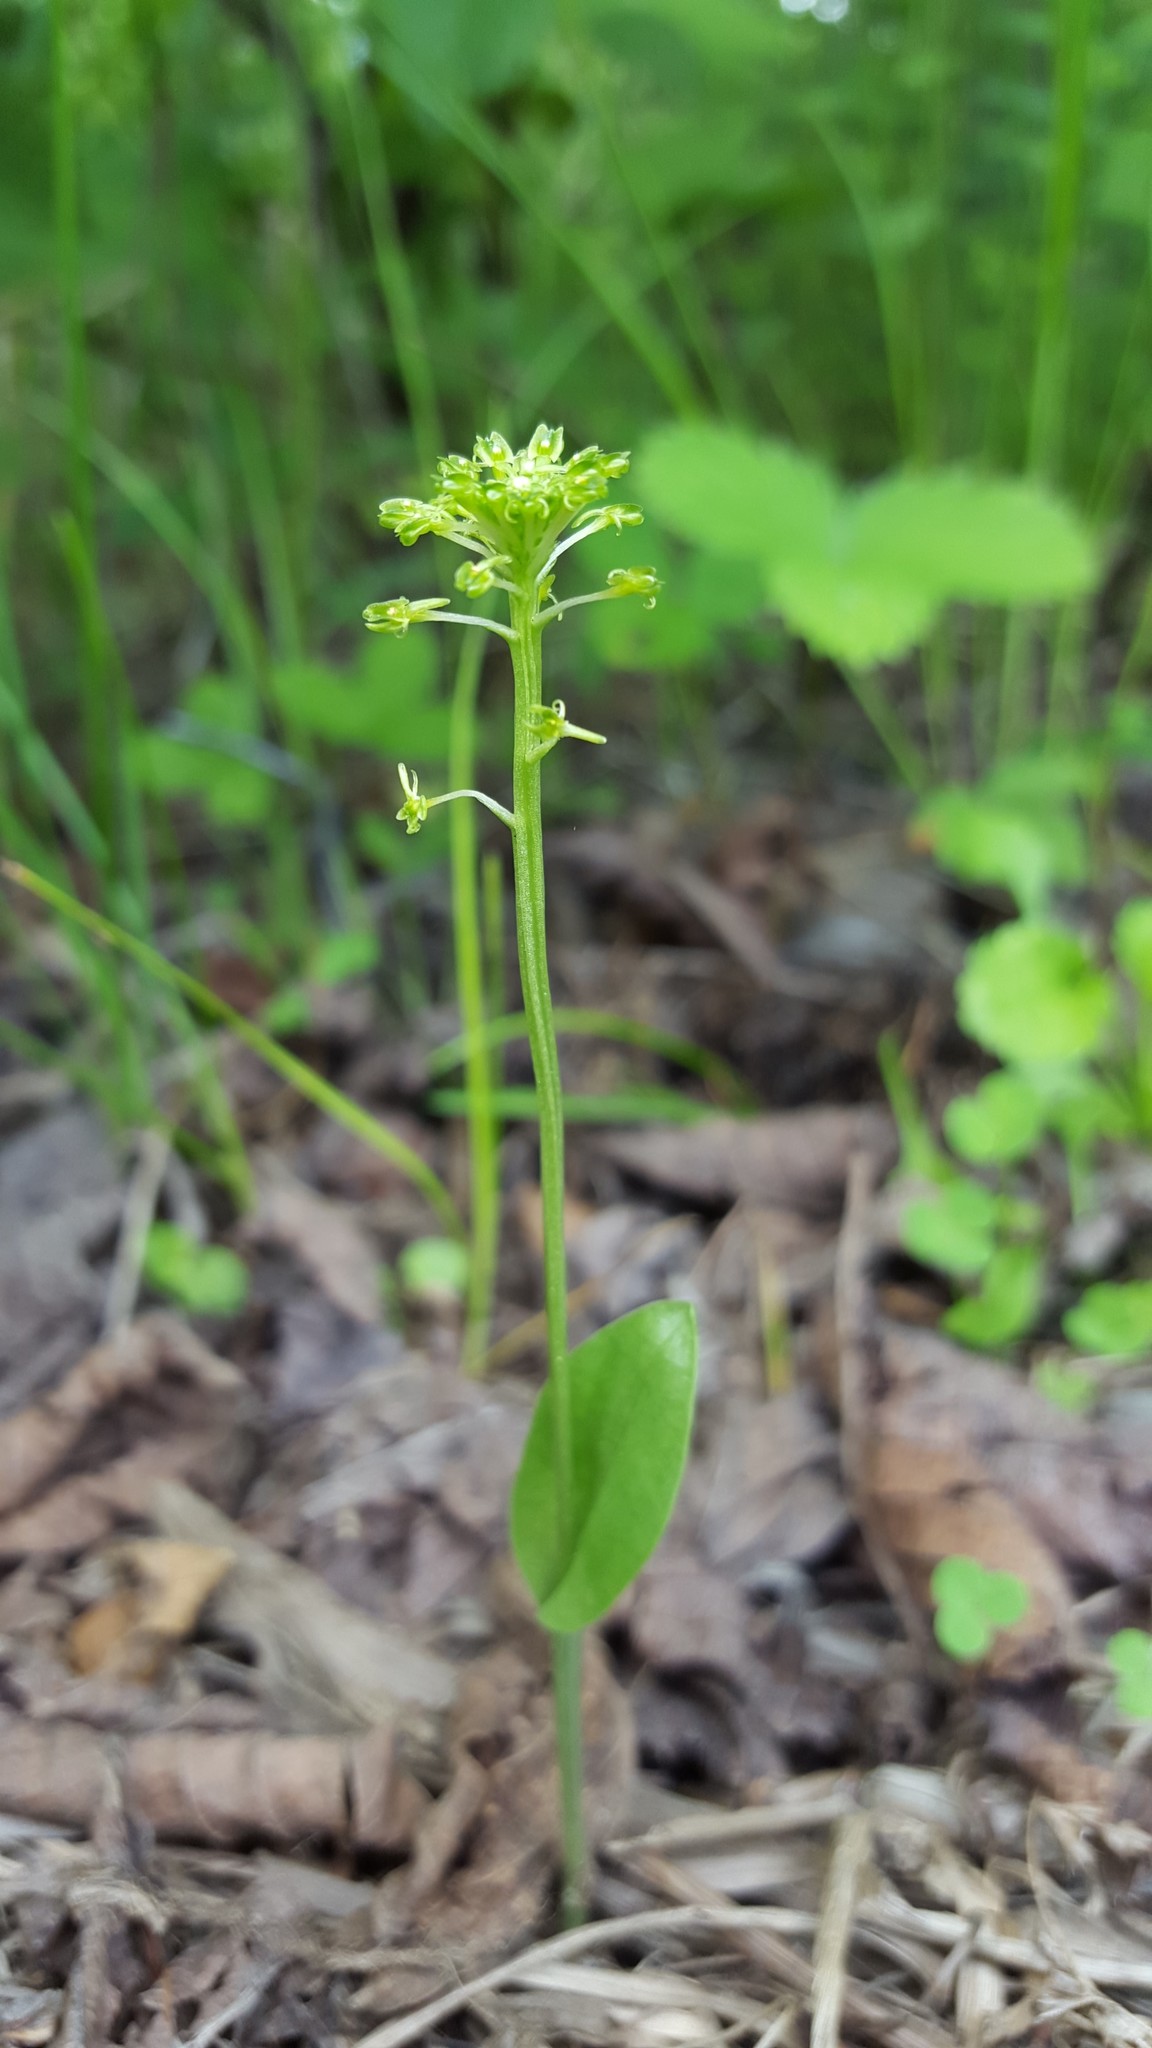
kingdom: Plantae
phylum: Tracheophyta
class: Liliopsida
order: Asparagales
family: Orchidaceae
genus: Malaxis
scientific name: Malaxis unifolia
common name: Green adder's-mouth
